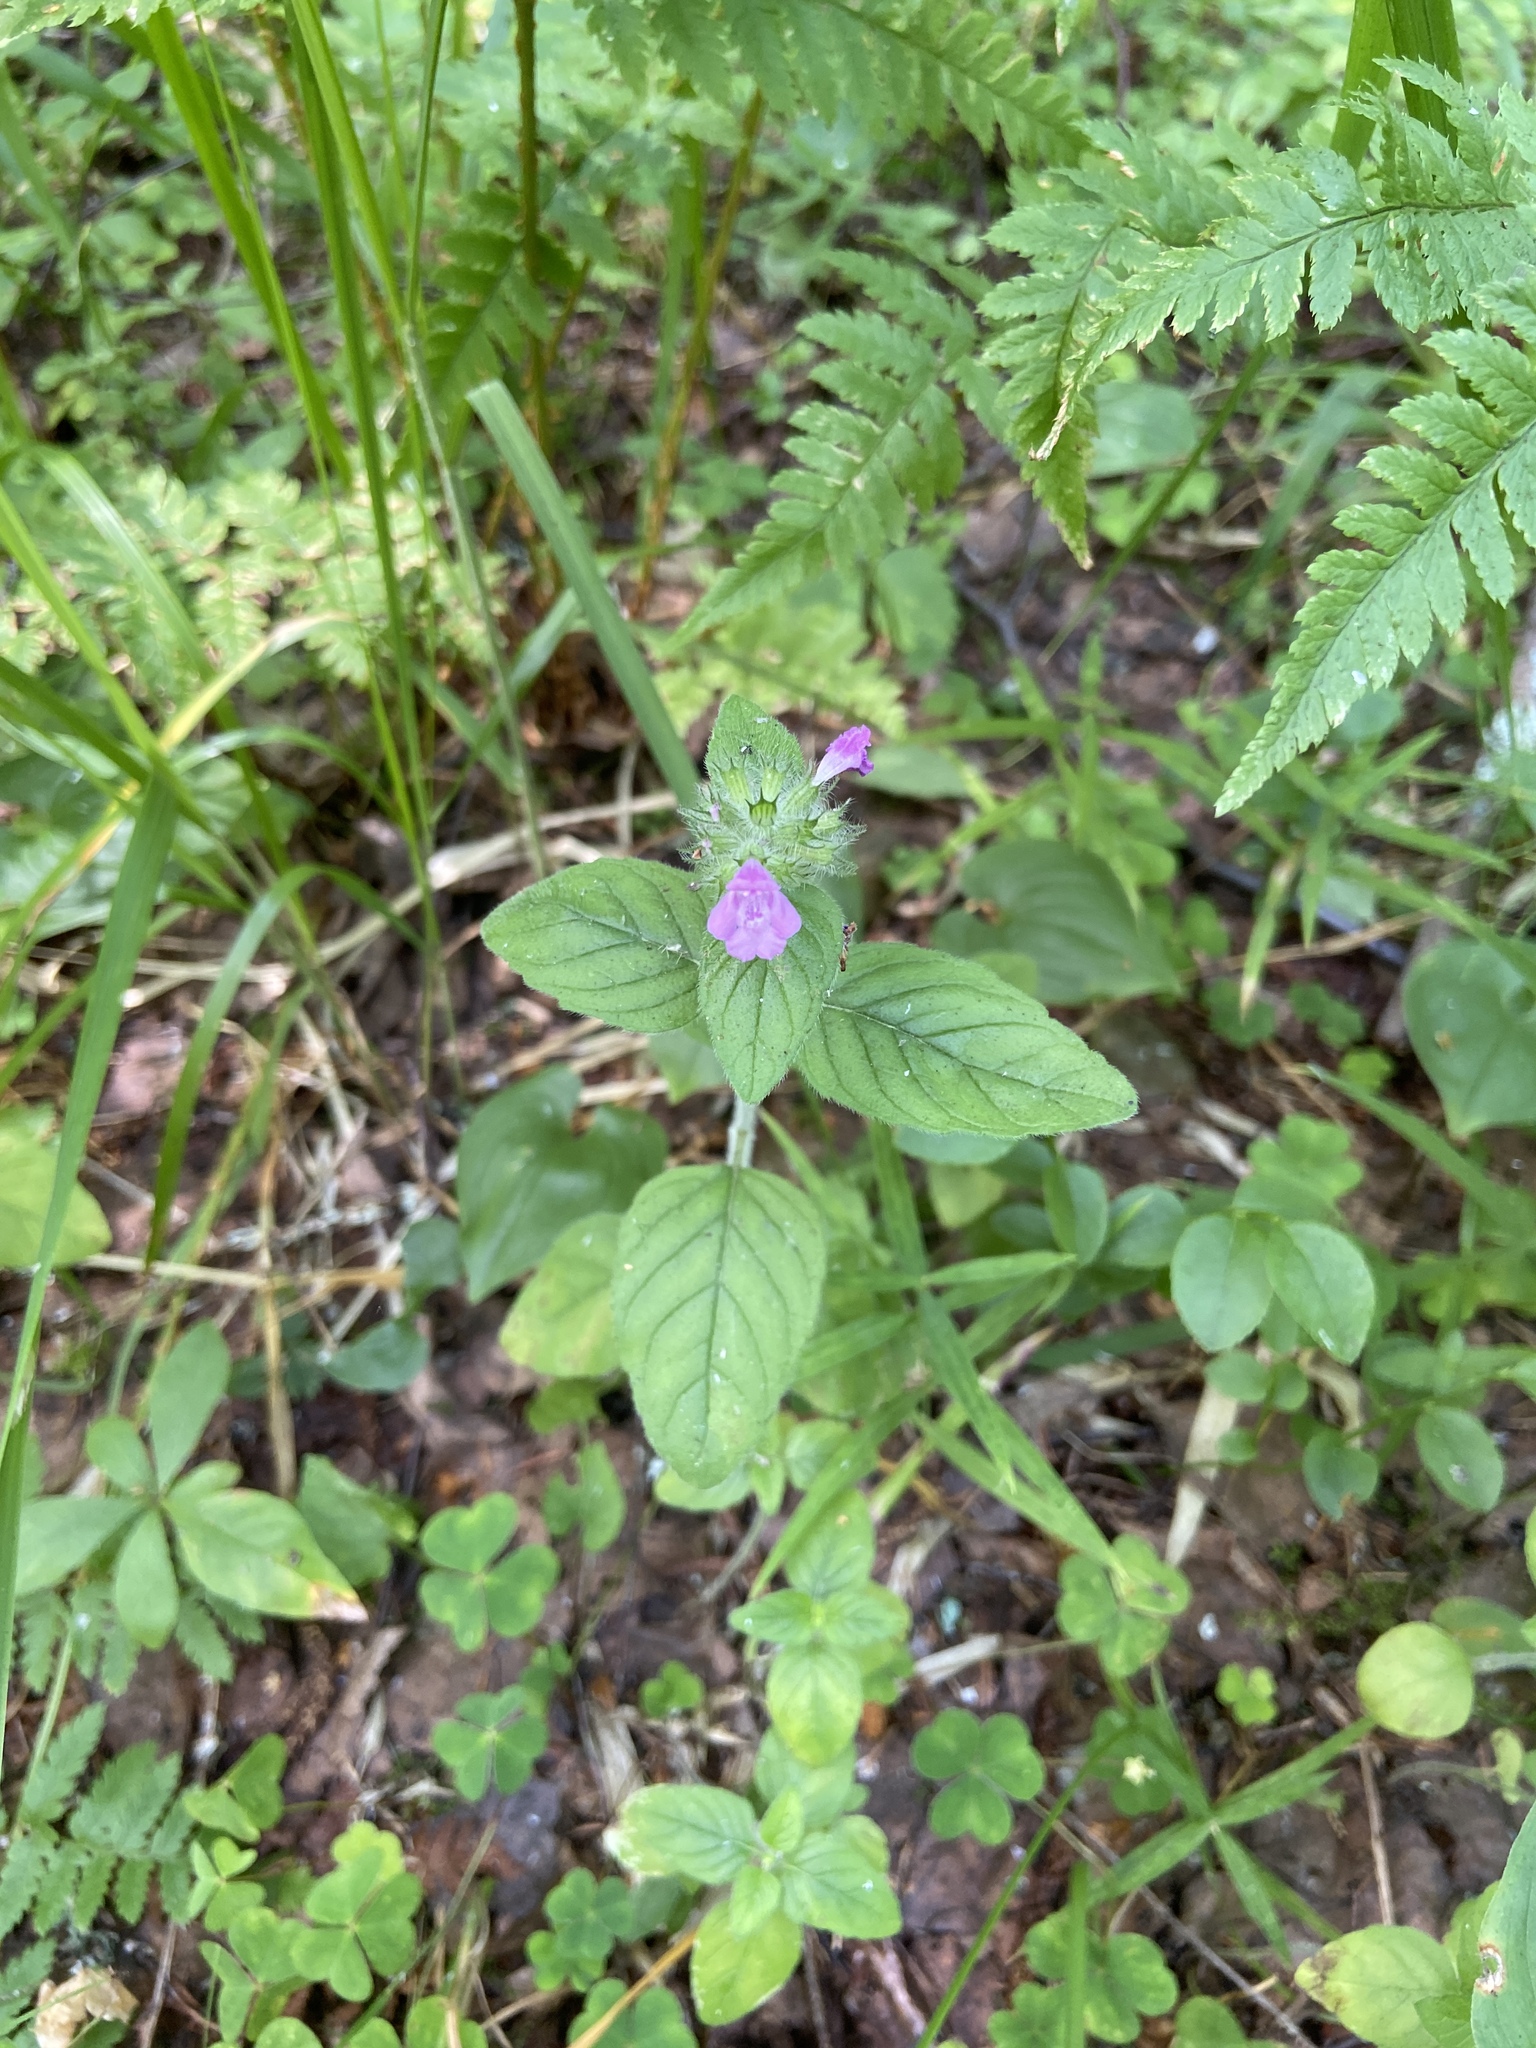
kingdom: Plantae
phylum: Tracheophyta
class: Magnoliopsida
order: Lamiales
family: Lamiaceae
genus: Clinopodium
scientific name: Clinopodium vulgare
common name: Wild basil
